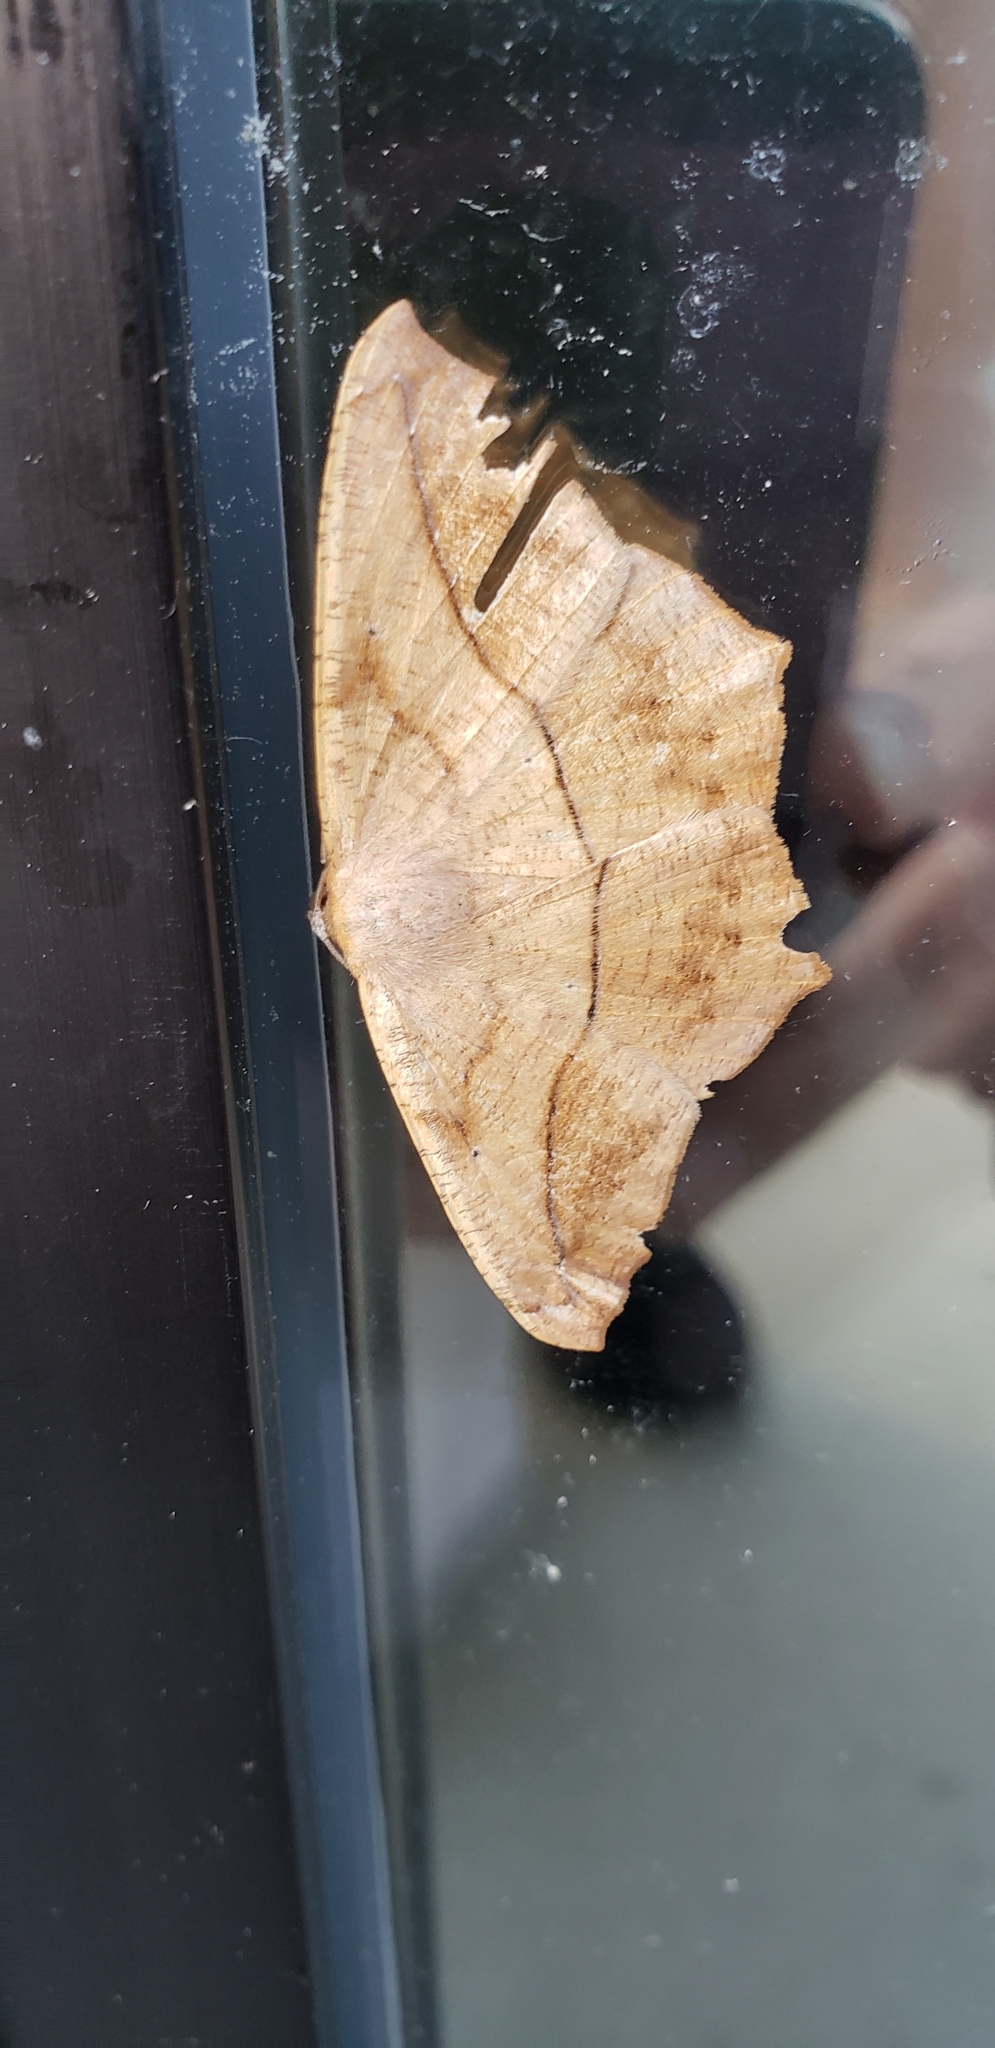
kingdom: Animalia
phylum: Arthropoda
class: Insecta
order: Lepidoptera
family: Geometridae
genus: Prochoerodes
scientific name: Prochoerodes lineola
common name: Large maple spanworm
